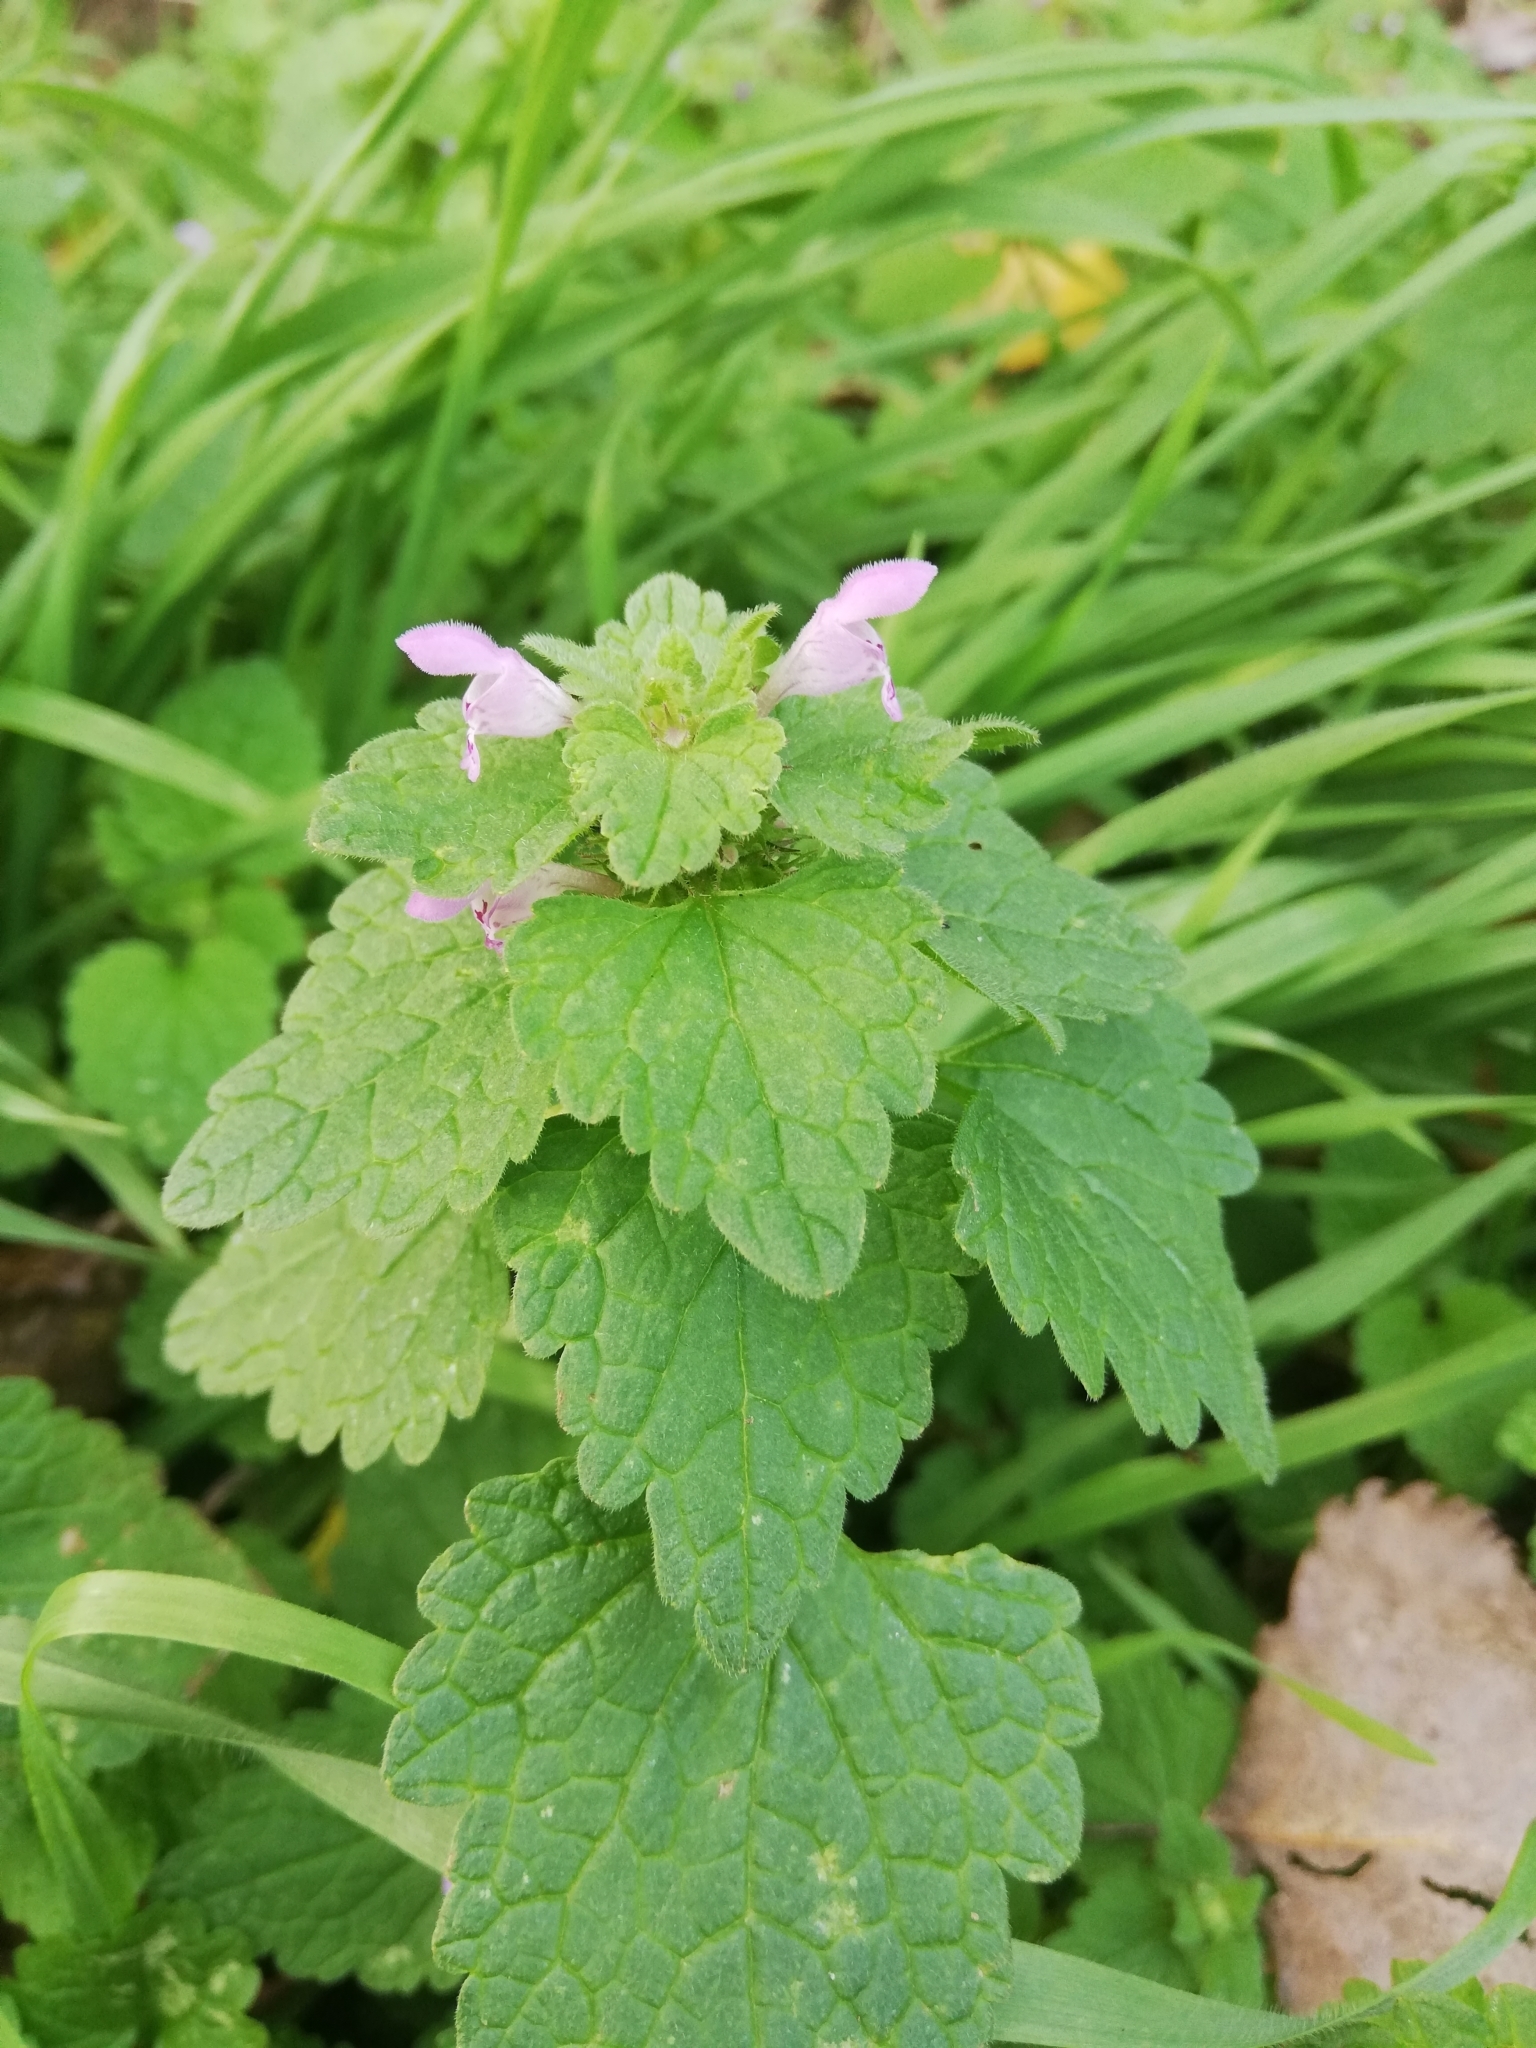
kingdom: Plantae
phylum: Tracheophyta
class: Magnoliopsida
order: Lamiales
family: Lamiaceae
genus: Lamium
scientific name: Lamium purpureum
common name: Red dead-nettle
